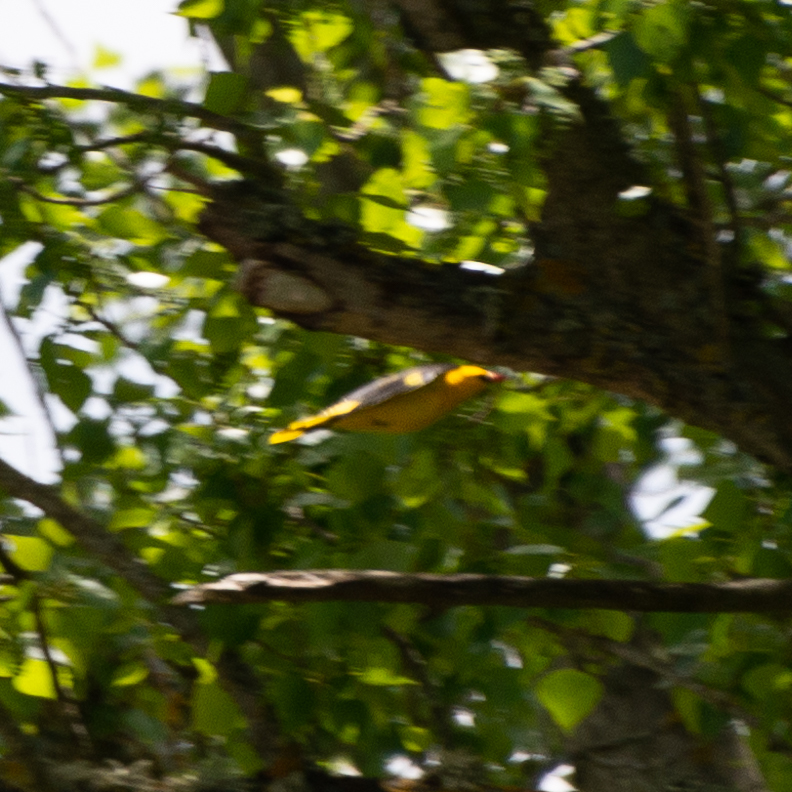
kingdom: Animalia
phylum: Chordata
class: Aves
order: Passeriformes
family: Oriolidae
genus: Oriolus
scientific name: Oriolus oriolus
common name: Eurasian golden oriole
